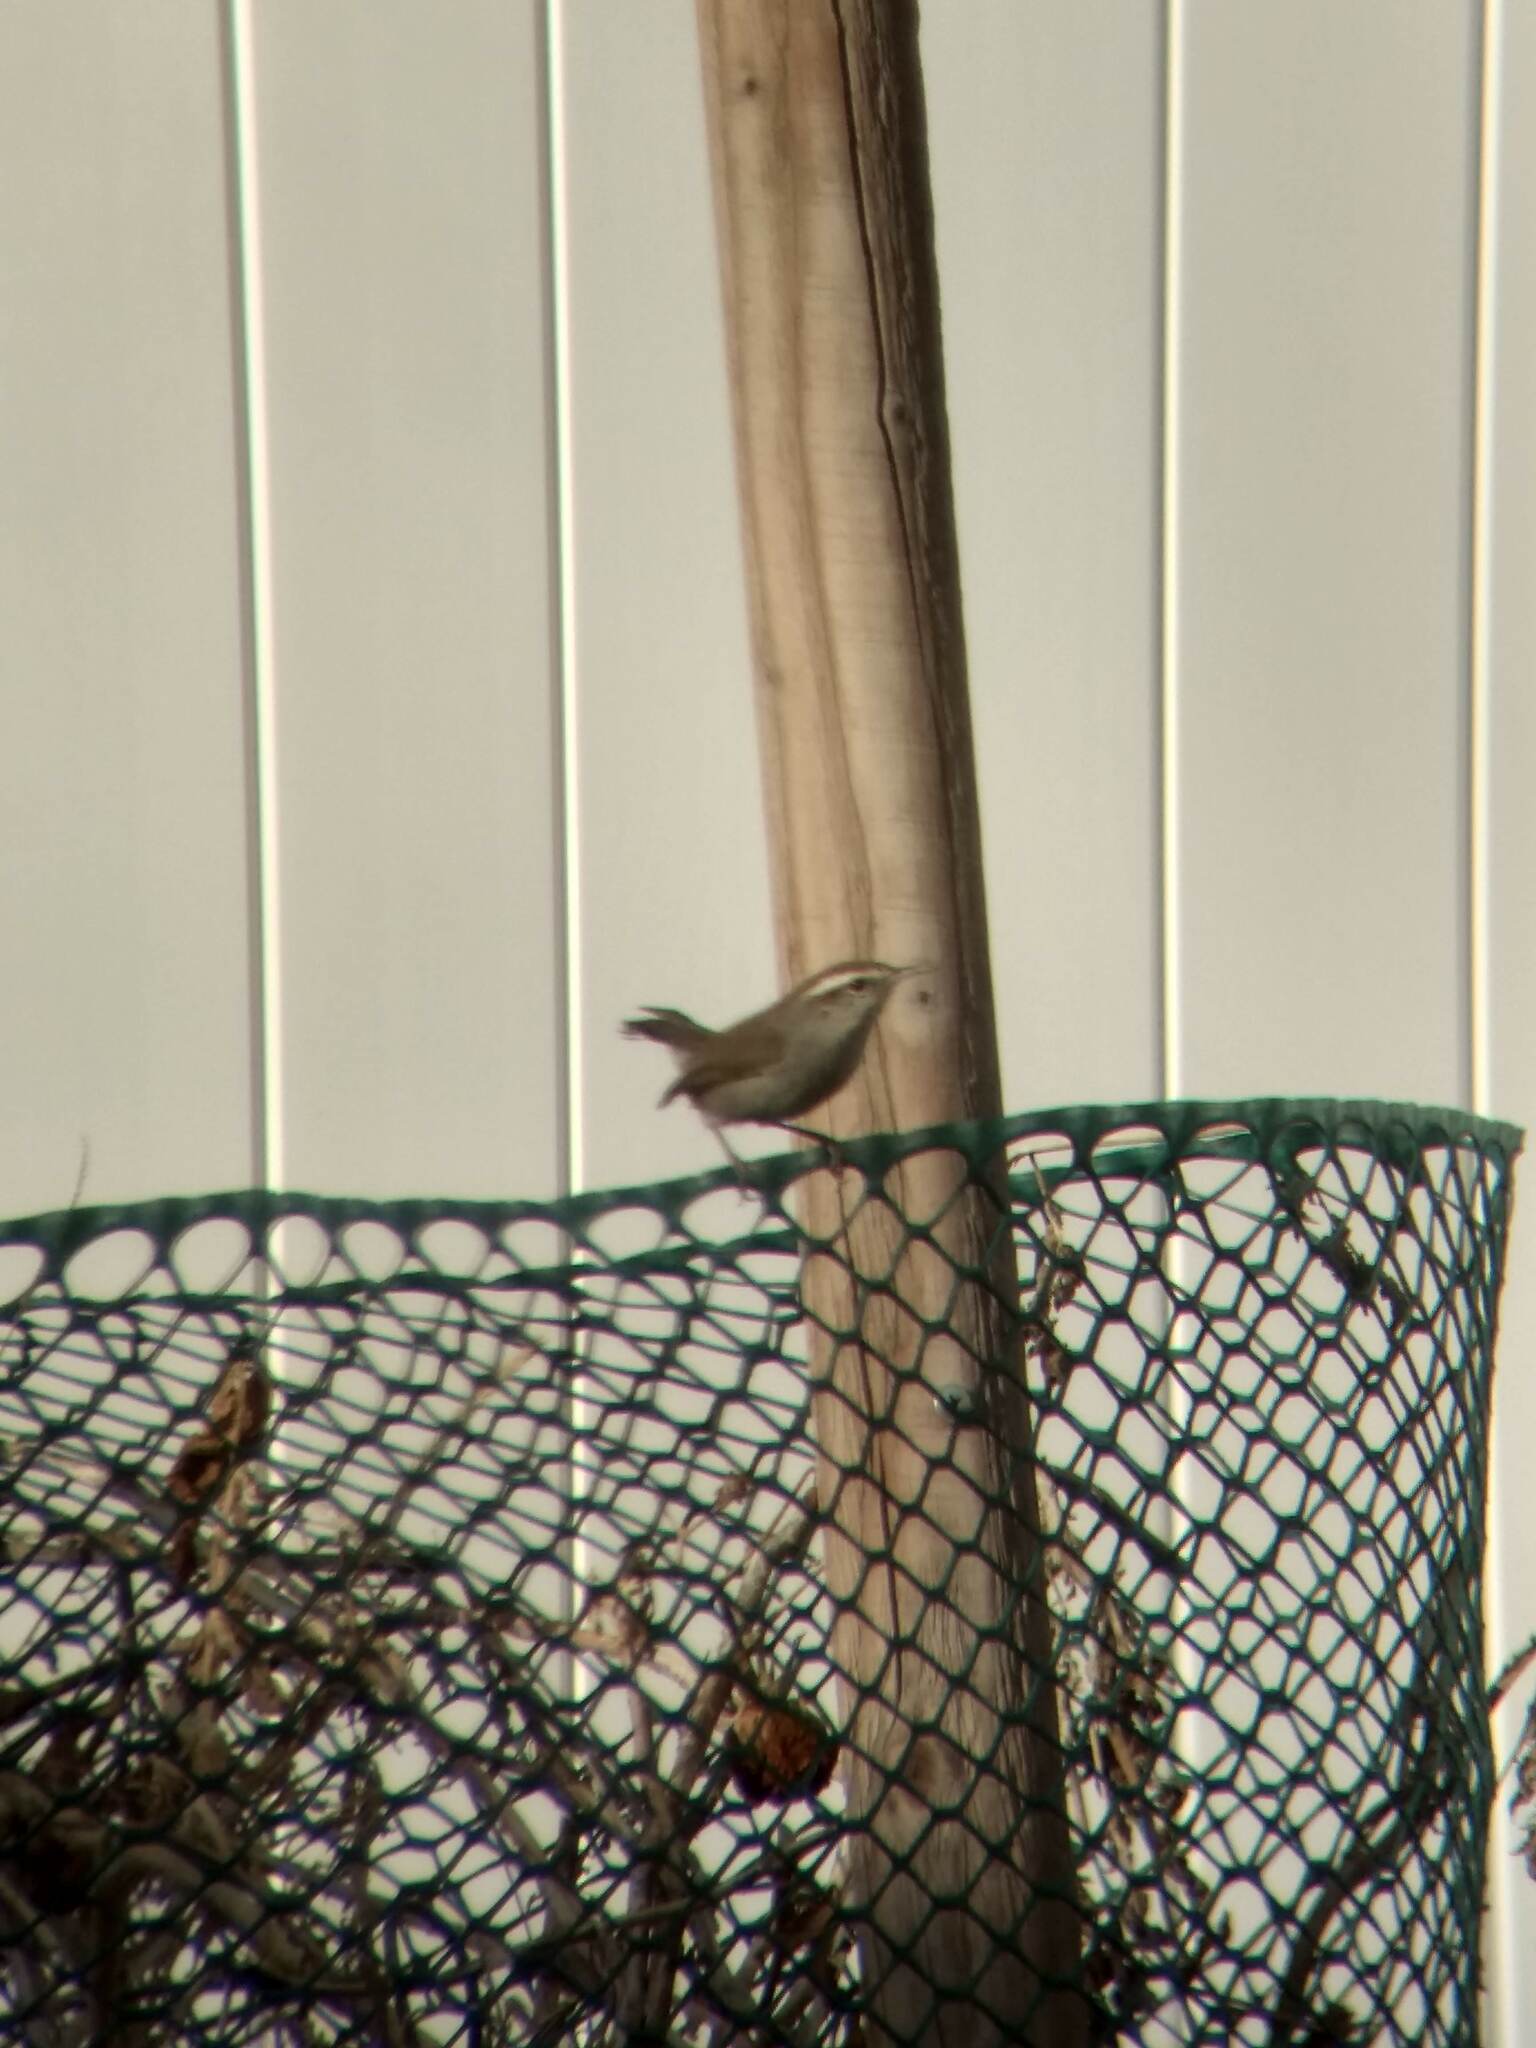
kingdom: Animalia
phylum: Chordata
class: Aves
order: Passeriformes
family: Troglodytidae
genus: Thryomanes
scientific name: Thryomanes bewickii
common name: Bewick's wren
